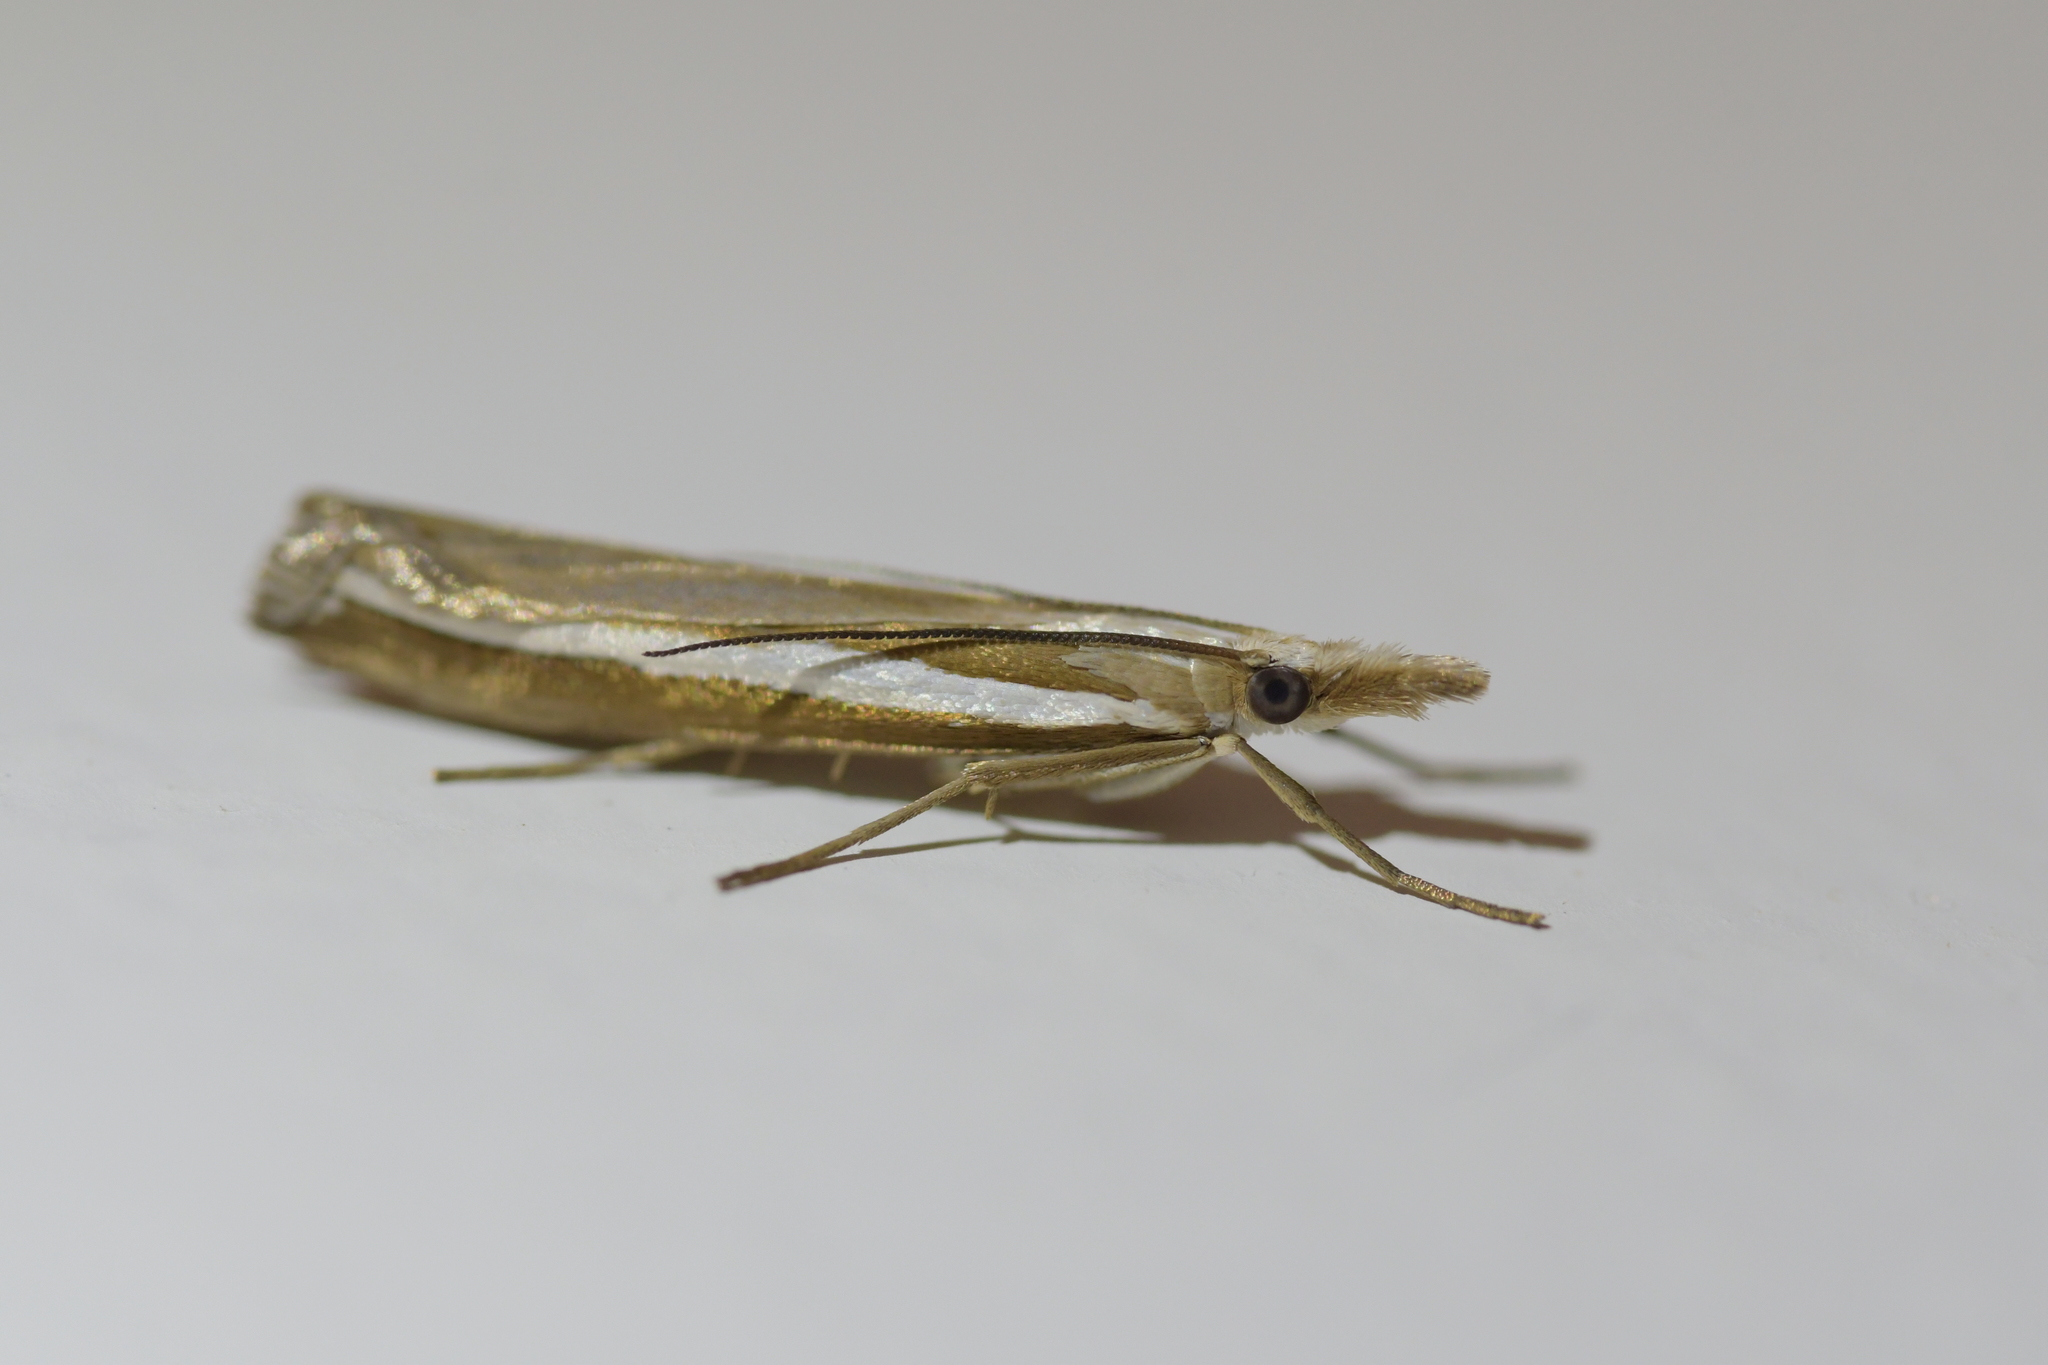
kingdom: Animalia
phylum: Arthropoda
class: Insecta
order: Lepidoptera
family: Crambidae
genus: Orocrambus
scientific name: Orocrambus vittellus
